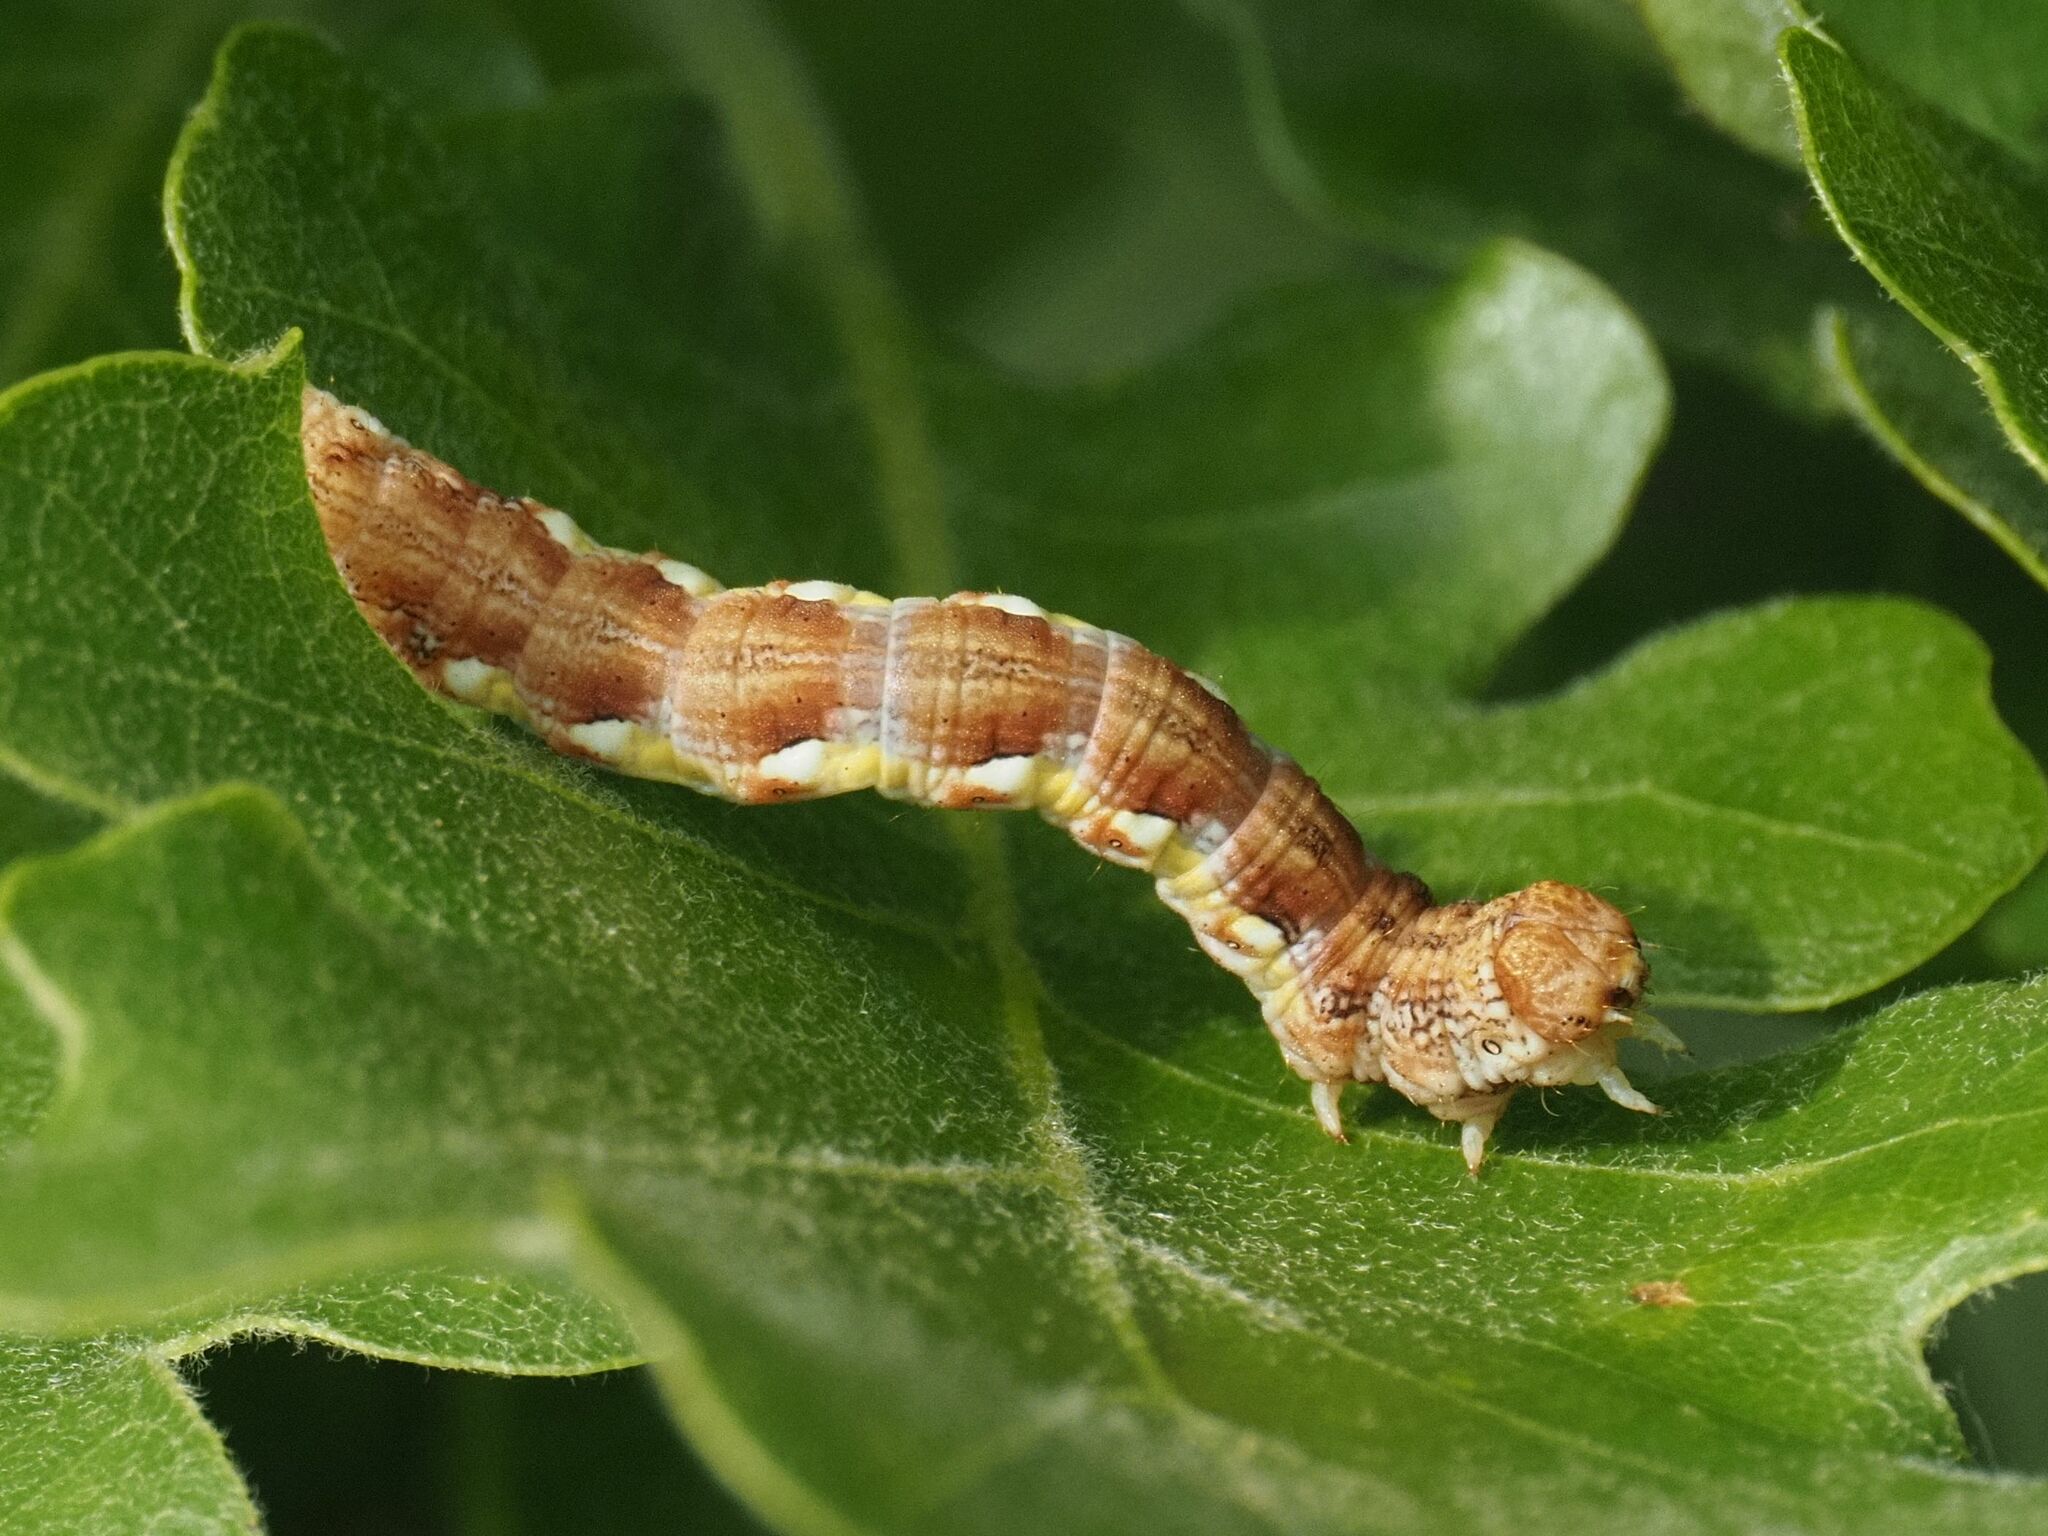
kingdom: Animalia
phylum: Arthropoda
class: Insecta
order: Lepidoptera
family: Geometridae
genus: Erannis
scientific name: Erannis defoliaria
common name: Mottled umber
